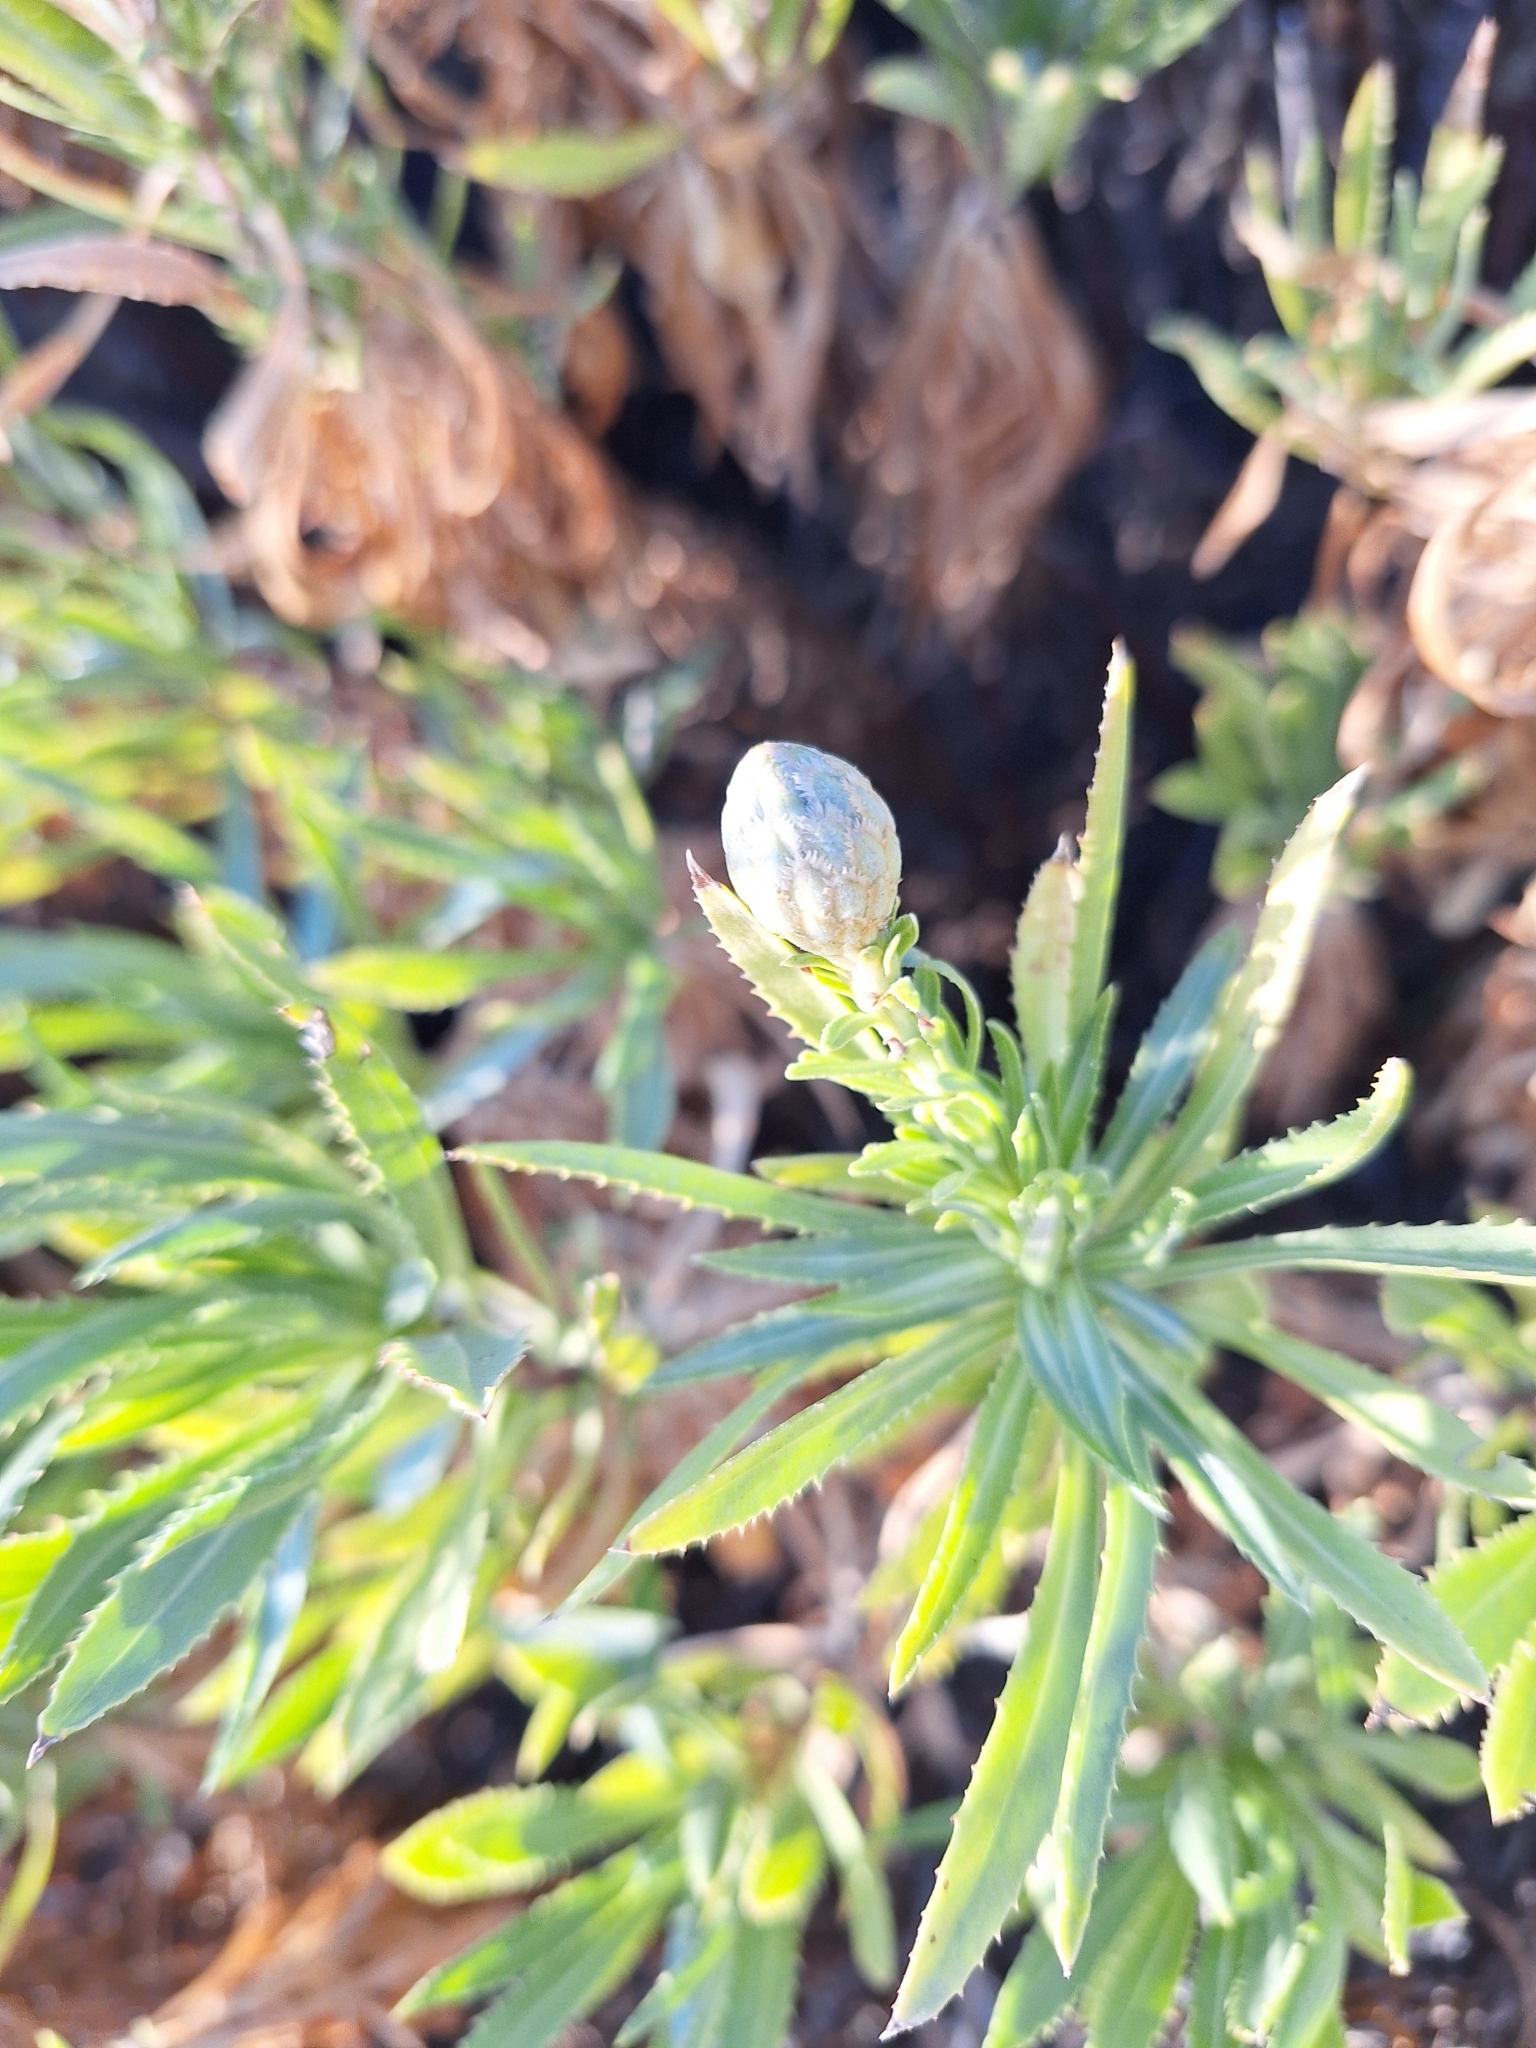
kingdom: Plantae
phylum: Tracheophyta
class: Magnoliopsida
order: Asterales
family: Asteraceae
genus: Cheirolophus
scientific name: Cheirolophus teydis
